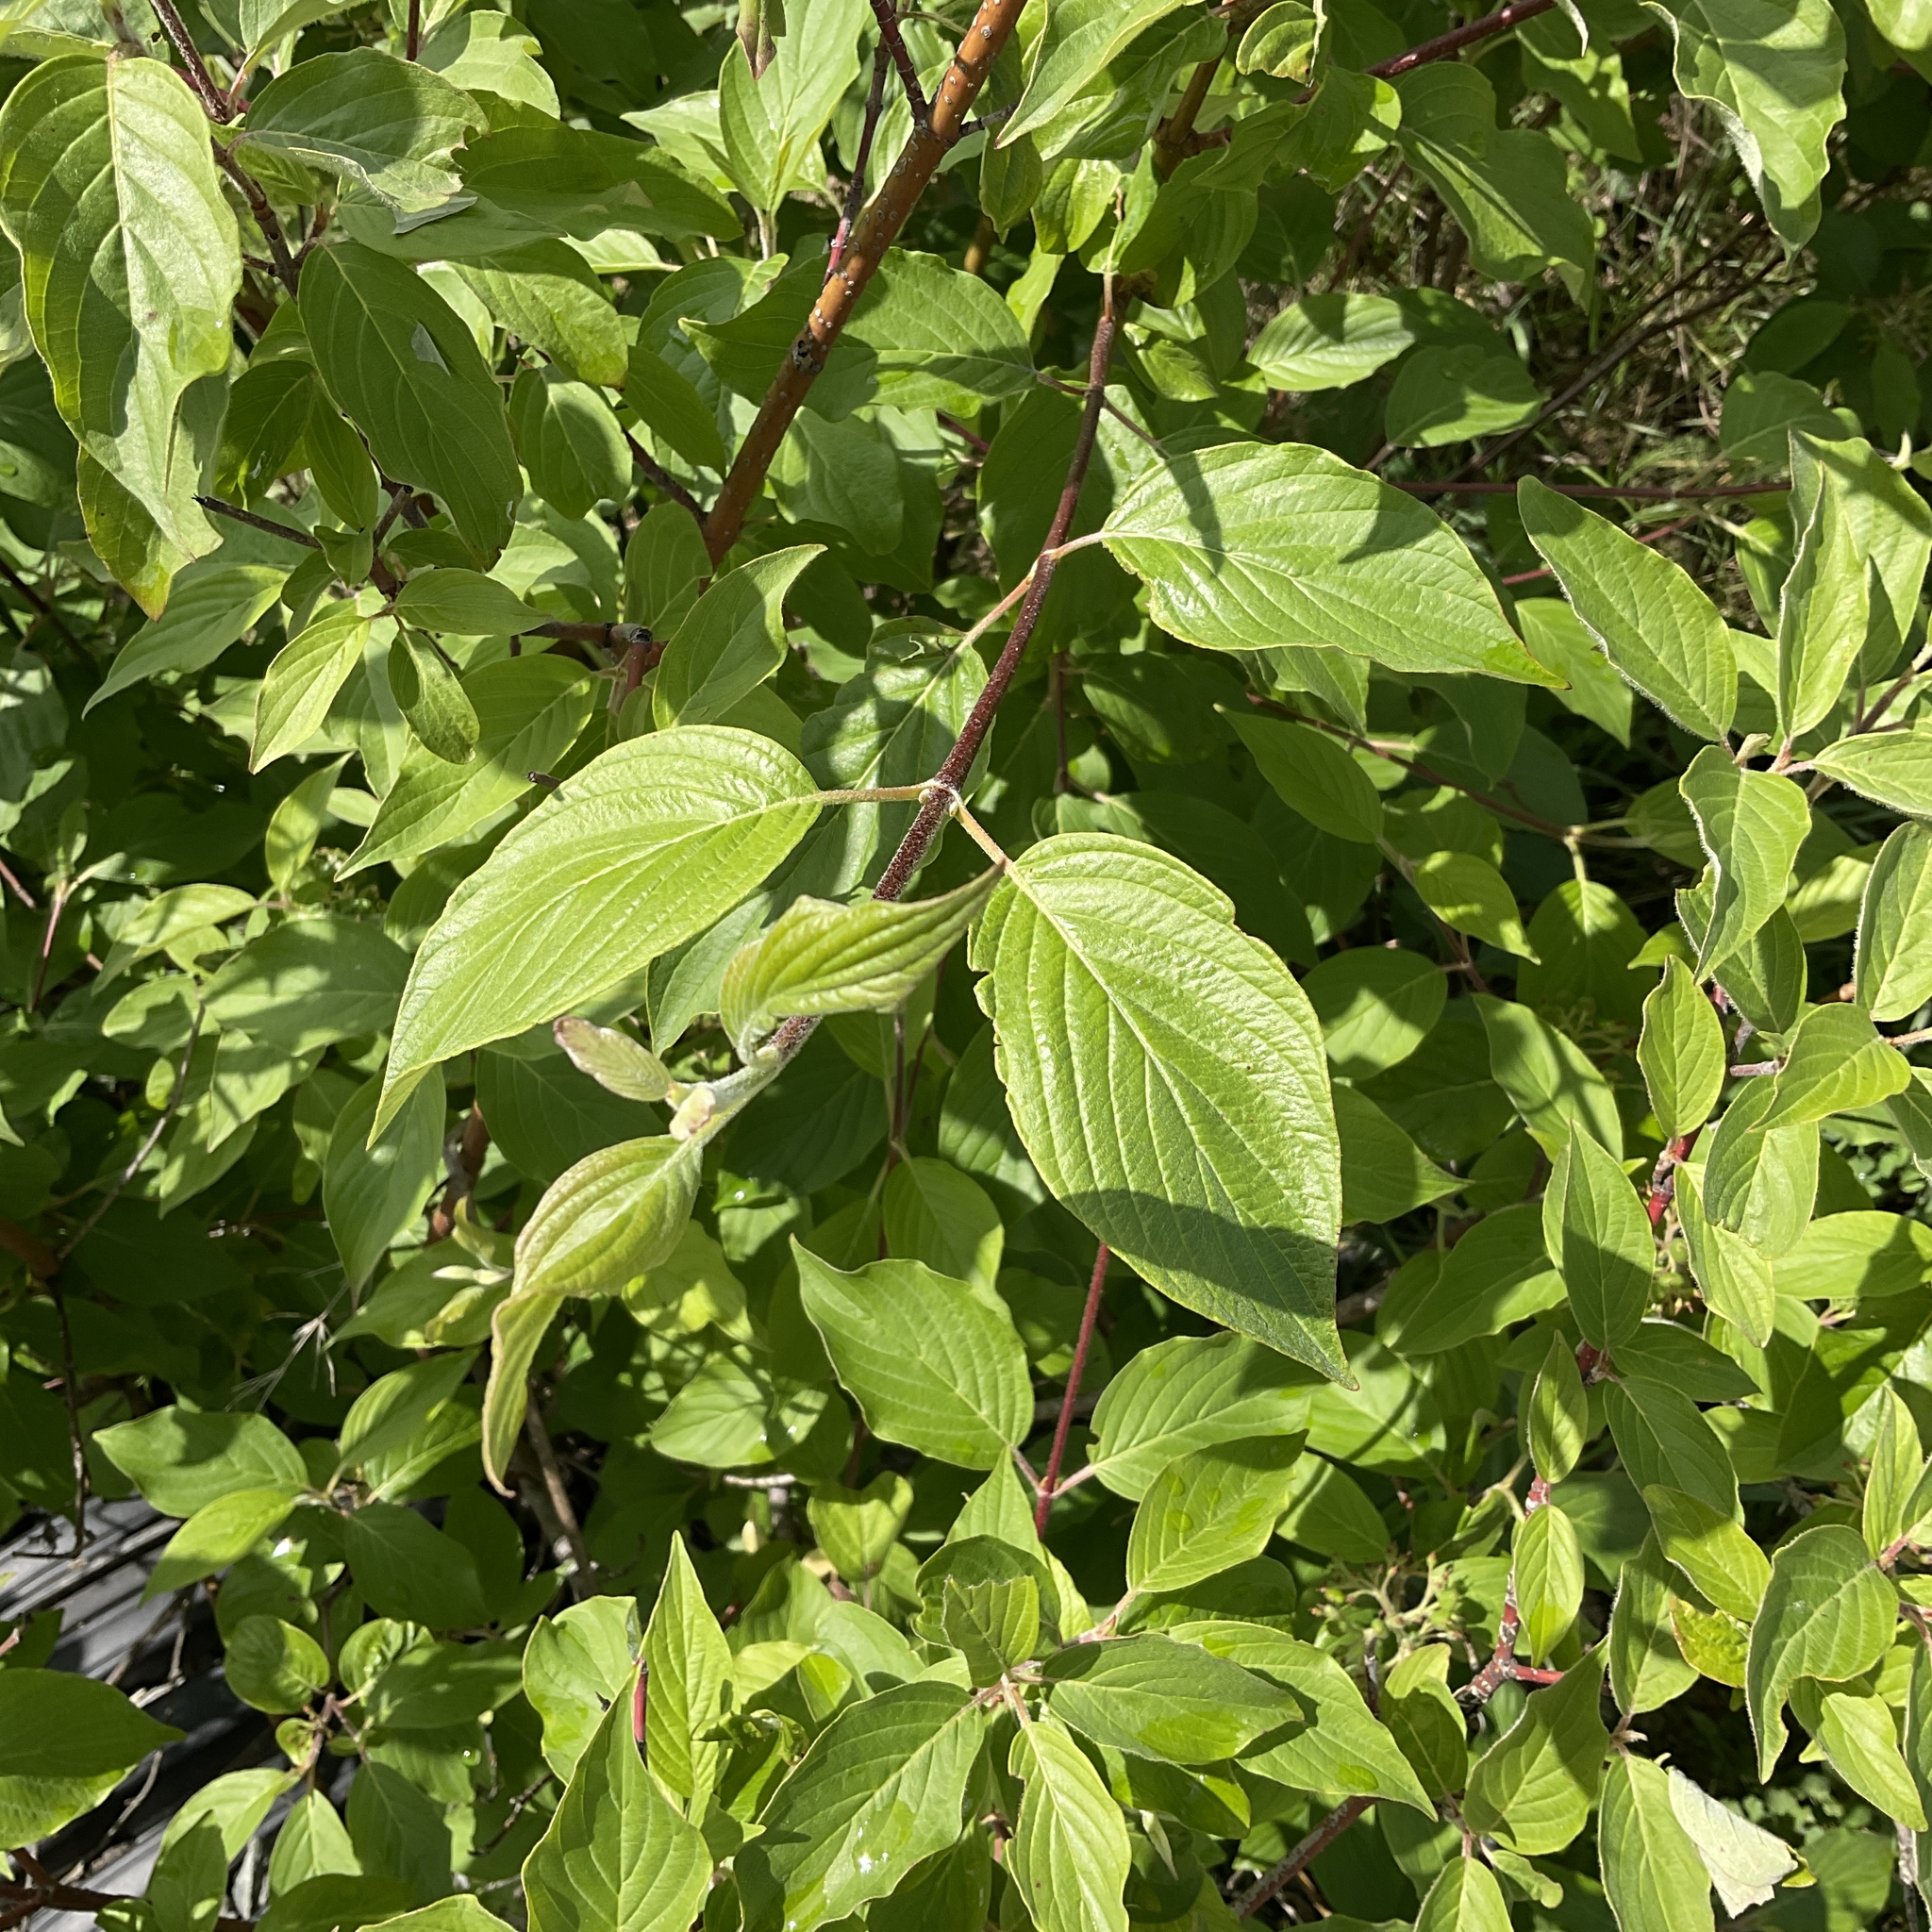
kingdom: Plantae
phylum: Tracheophyta
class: Magnoliopsida
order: Cornales
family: Cornaceae
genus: Cornus
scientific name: Cornus sericea
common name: Red-osier dogwood
